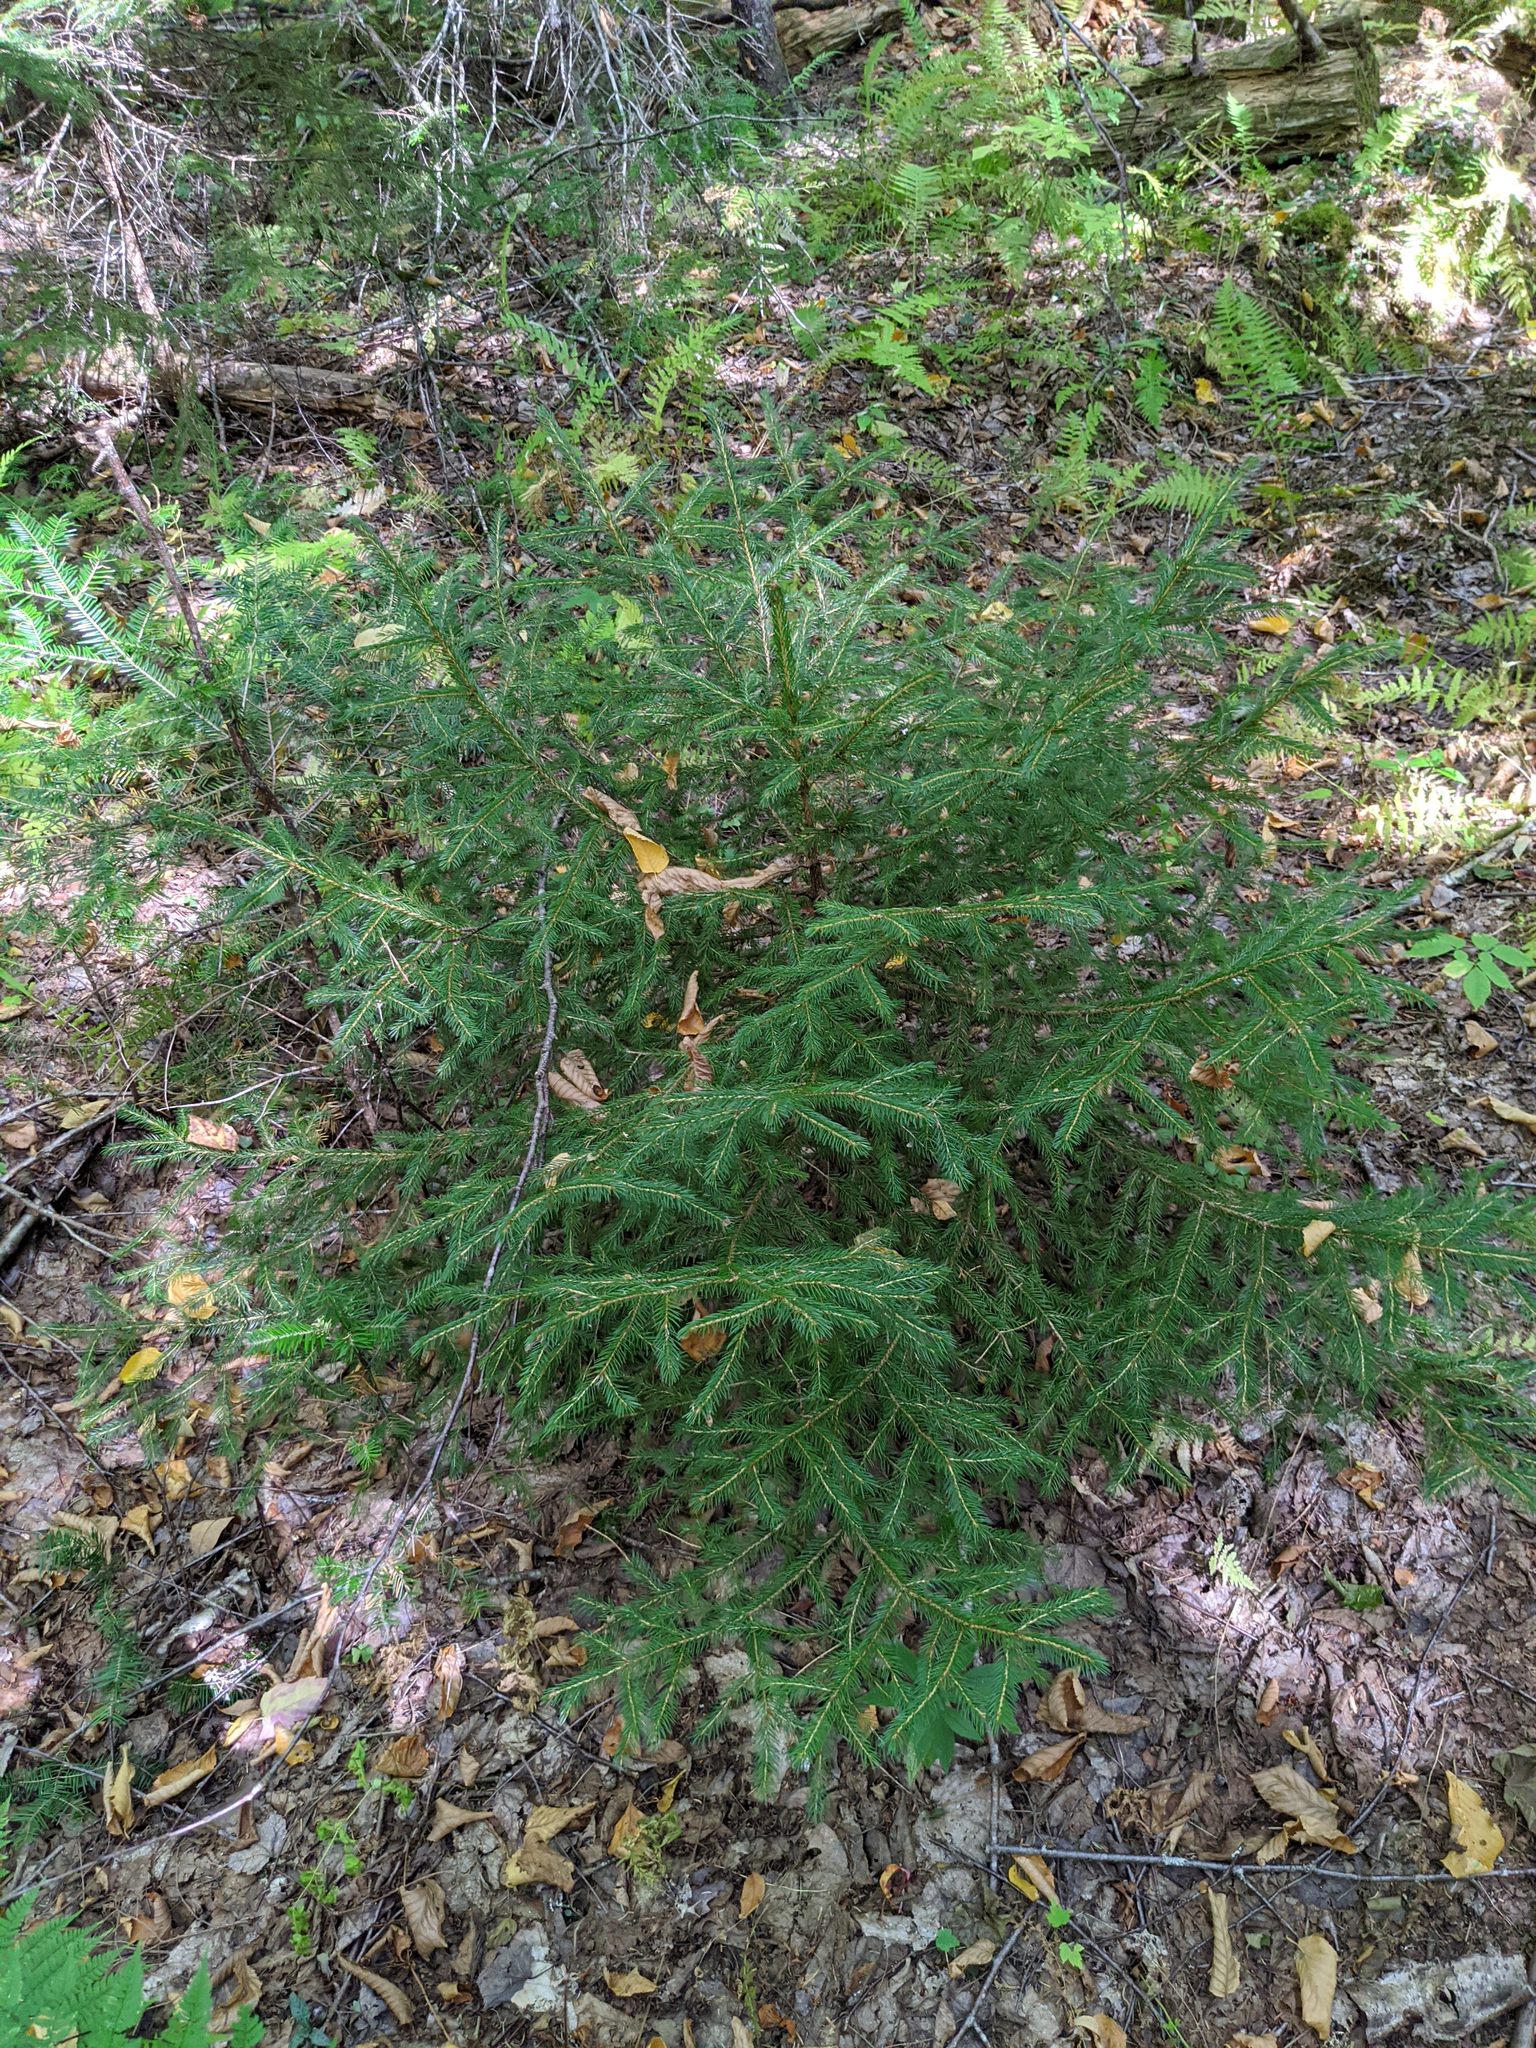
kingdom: Plantae
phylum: Tracheophyta
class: Pinopsida
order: Pinales
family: Pinaceae
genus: Picea
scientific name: Picea rubens
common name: Red spruce
